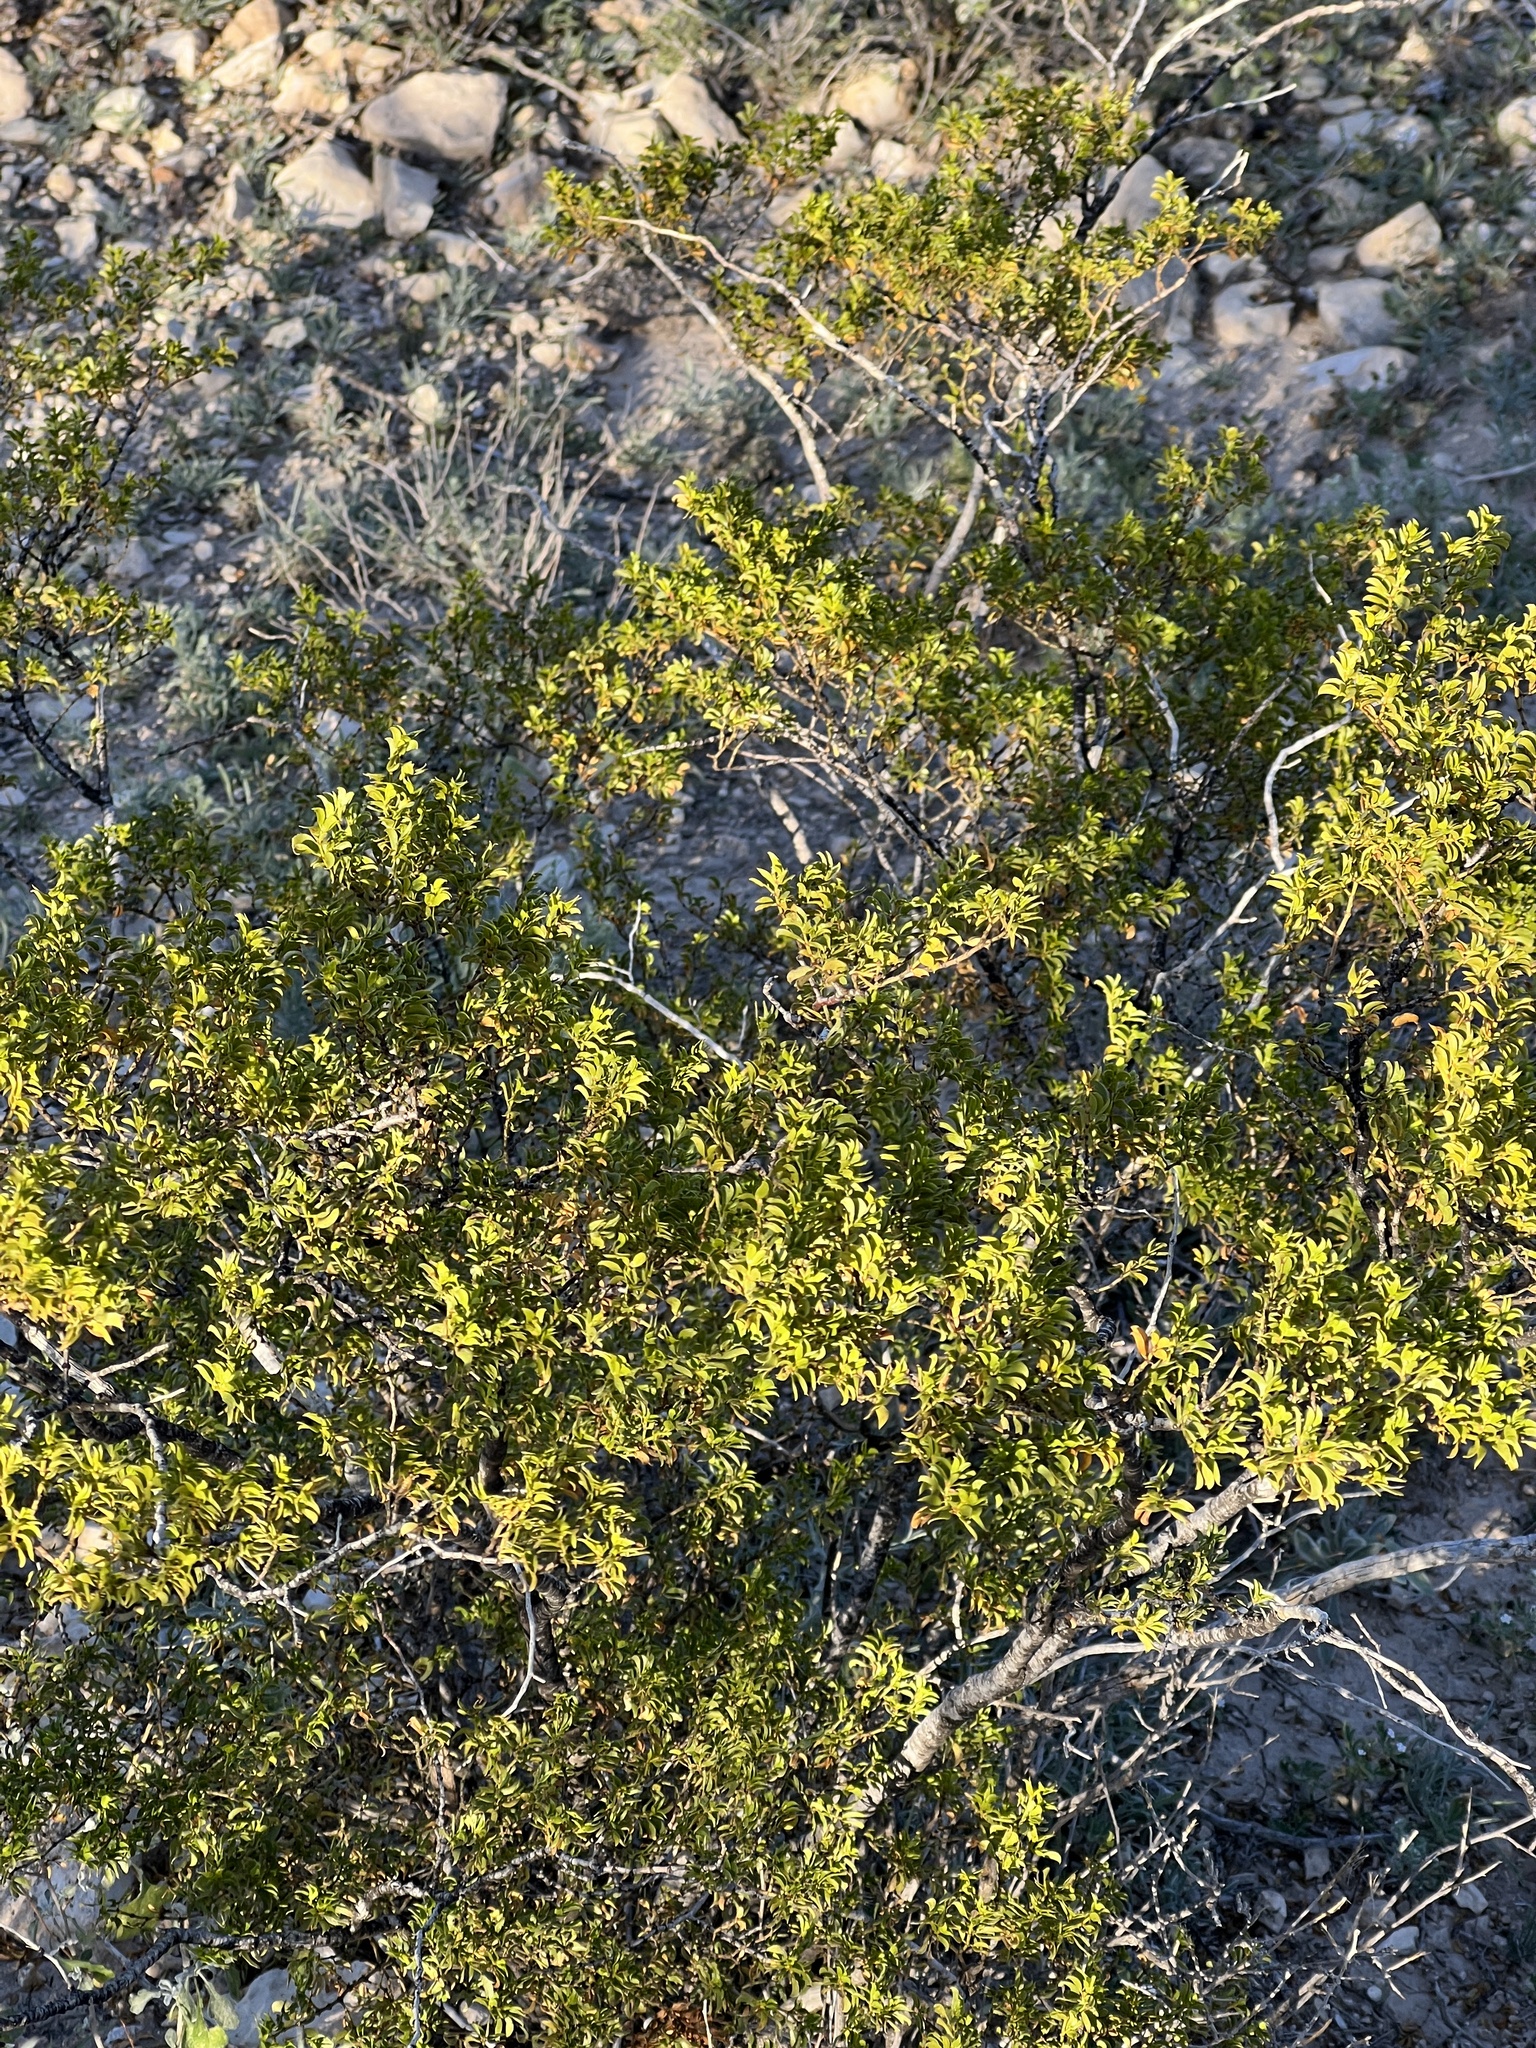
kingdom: Plantae
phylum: Tracheophyta
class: Magnoliopsida
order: Zygophyllales
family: Zygophyllaceae
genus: Larrea
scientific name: Larrea tridentata
